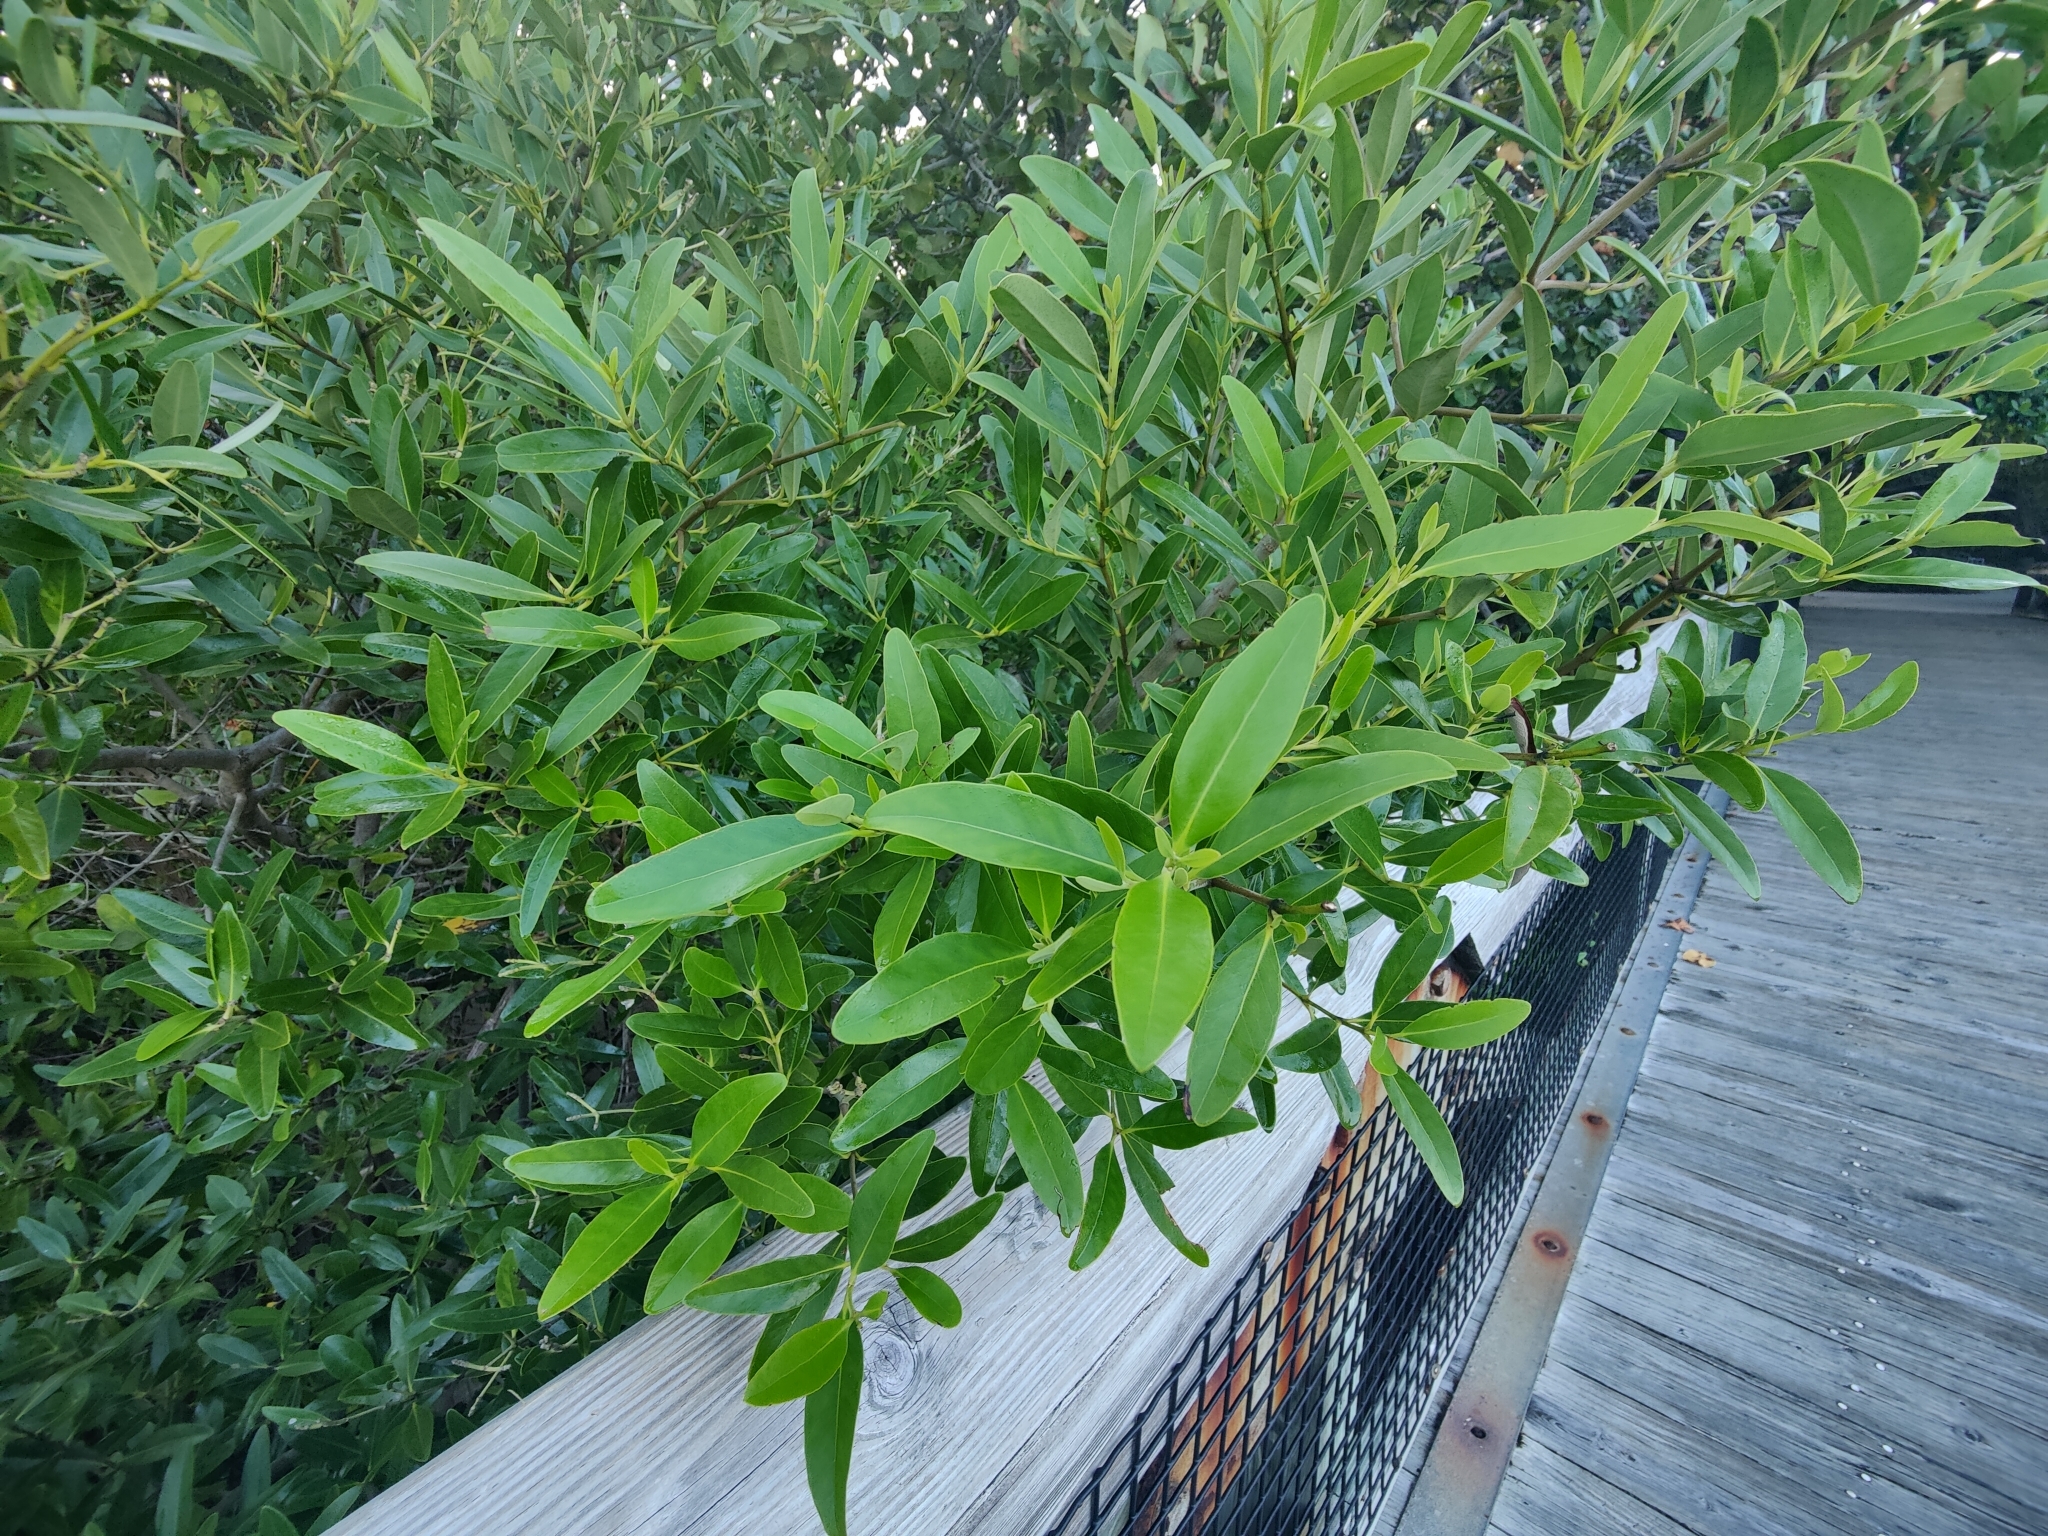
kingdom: Plantae
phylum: Tracheophyta
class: Magnoliopsida
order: Lamiales
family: Acanthaceae
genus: Avicennia
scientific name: Avicennia germinans
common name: Black mangrove
